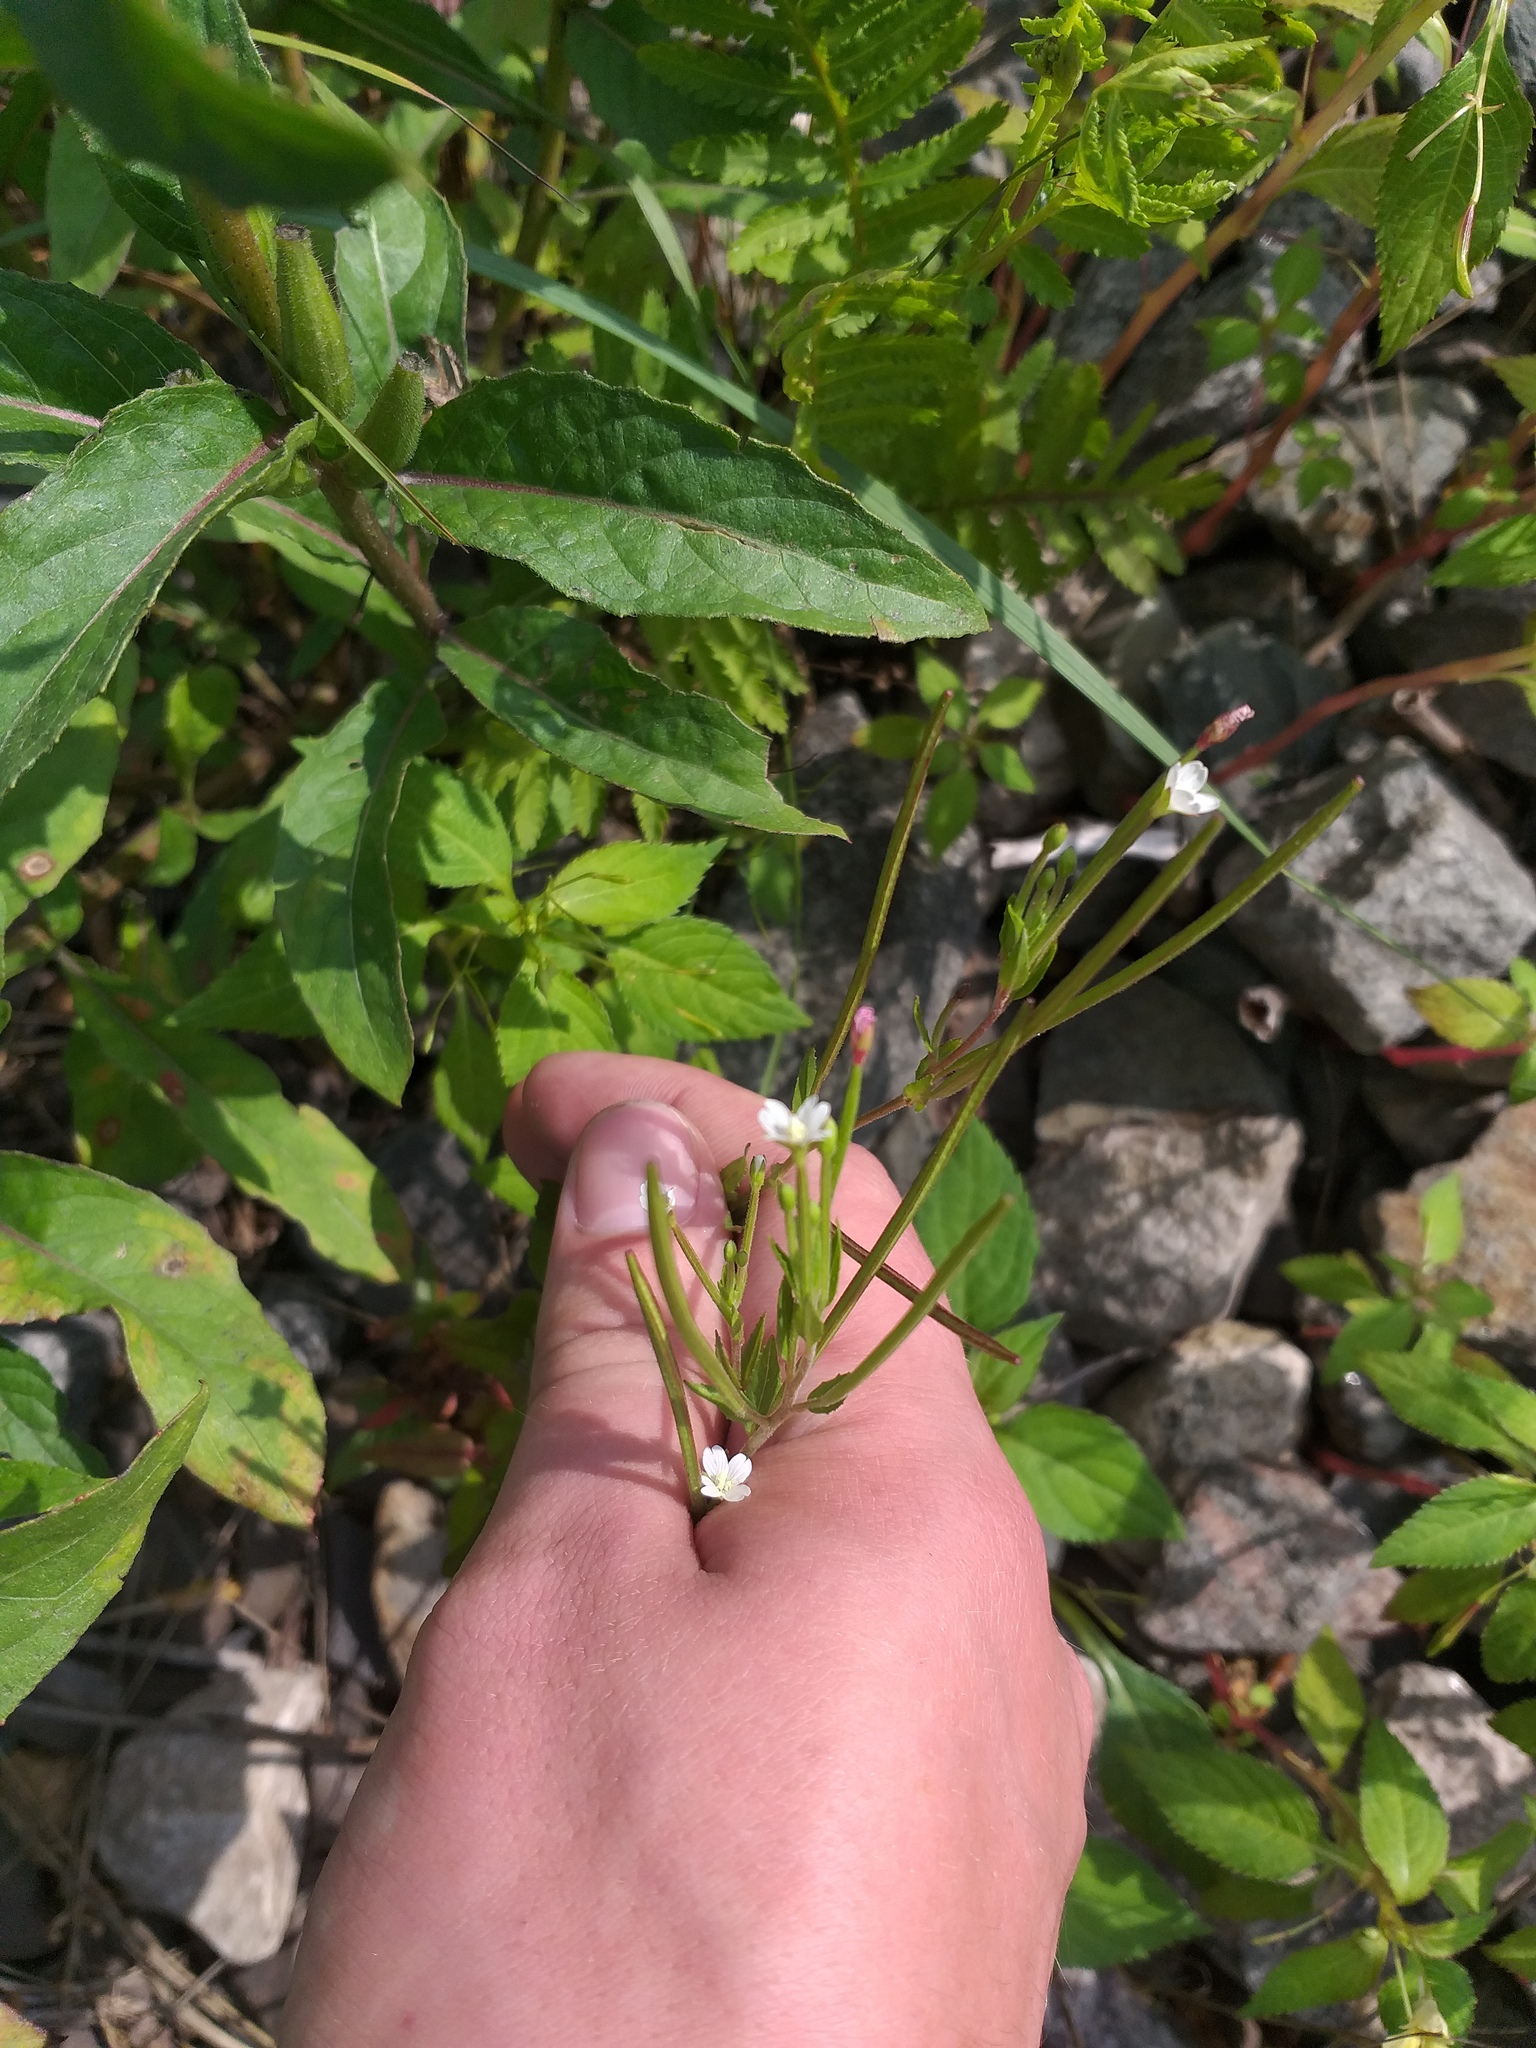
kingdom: Plantae
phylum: Tracheophyta
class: Magnoliopsida
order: Myrtales
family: Onagraceae
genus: Epilobium
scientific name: Epilobium pseudorubescens
